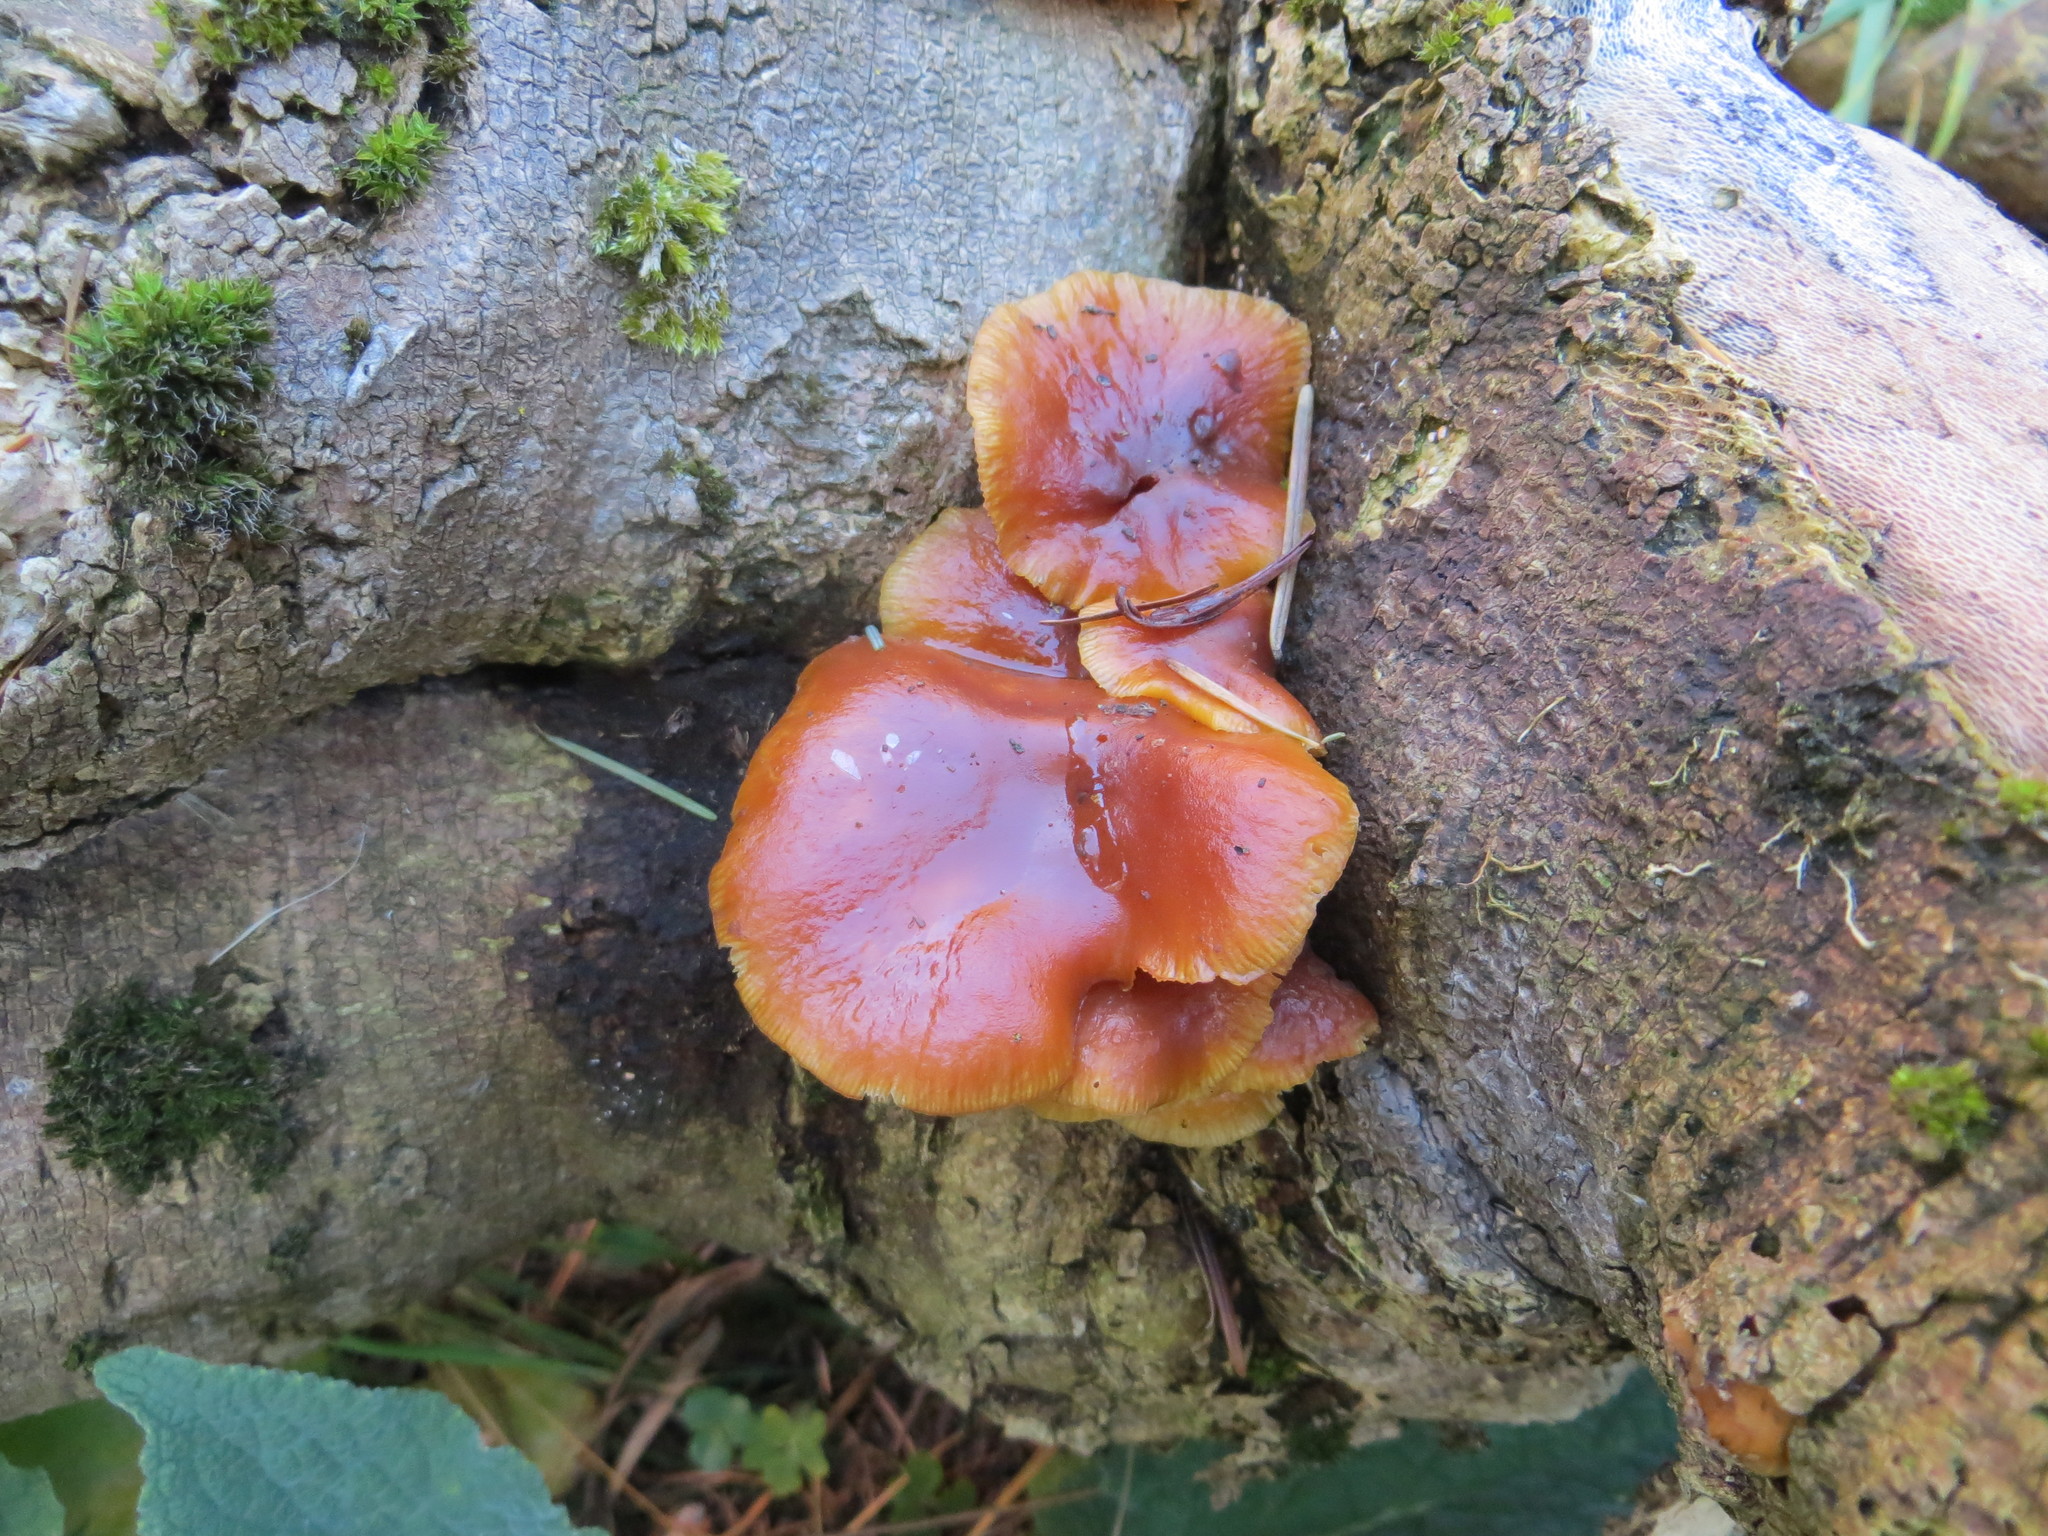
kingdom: Fungi
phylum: Basidiomycota
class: Agaricomycetes
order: Agaricales
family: Physalacriaceae
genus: Flammulina
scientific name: Flammulina velutipes
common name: Velvet shank
